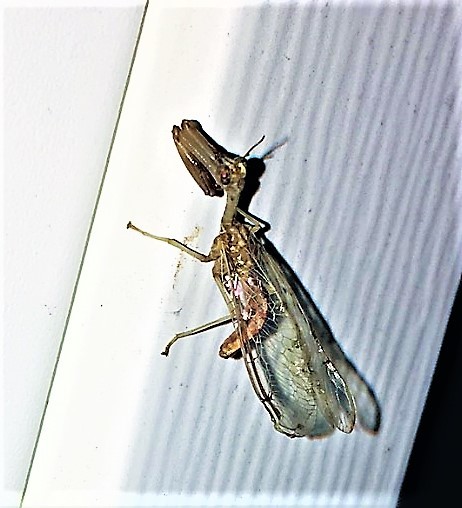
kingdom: Animalia
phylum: Arthropoda
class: Insecta
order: Neuroptera
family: Mantispidae
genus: Dicromantispa
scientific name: Dicromantispa interrupta
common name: Four-spotted mantidfly
